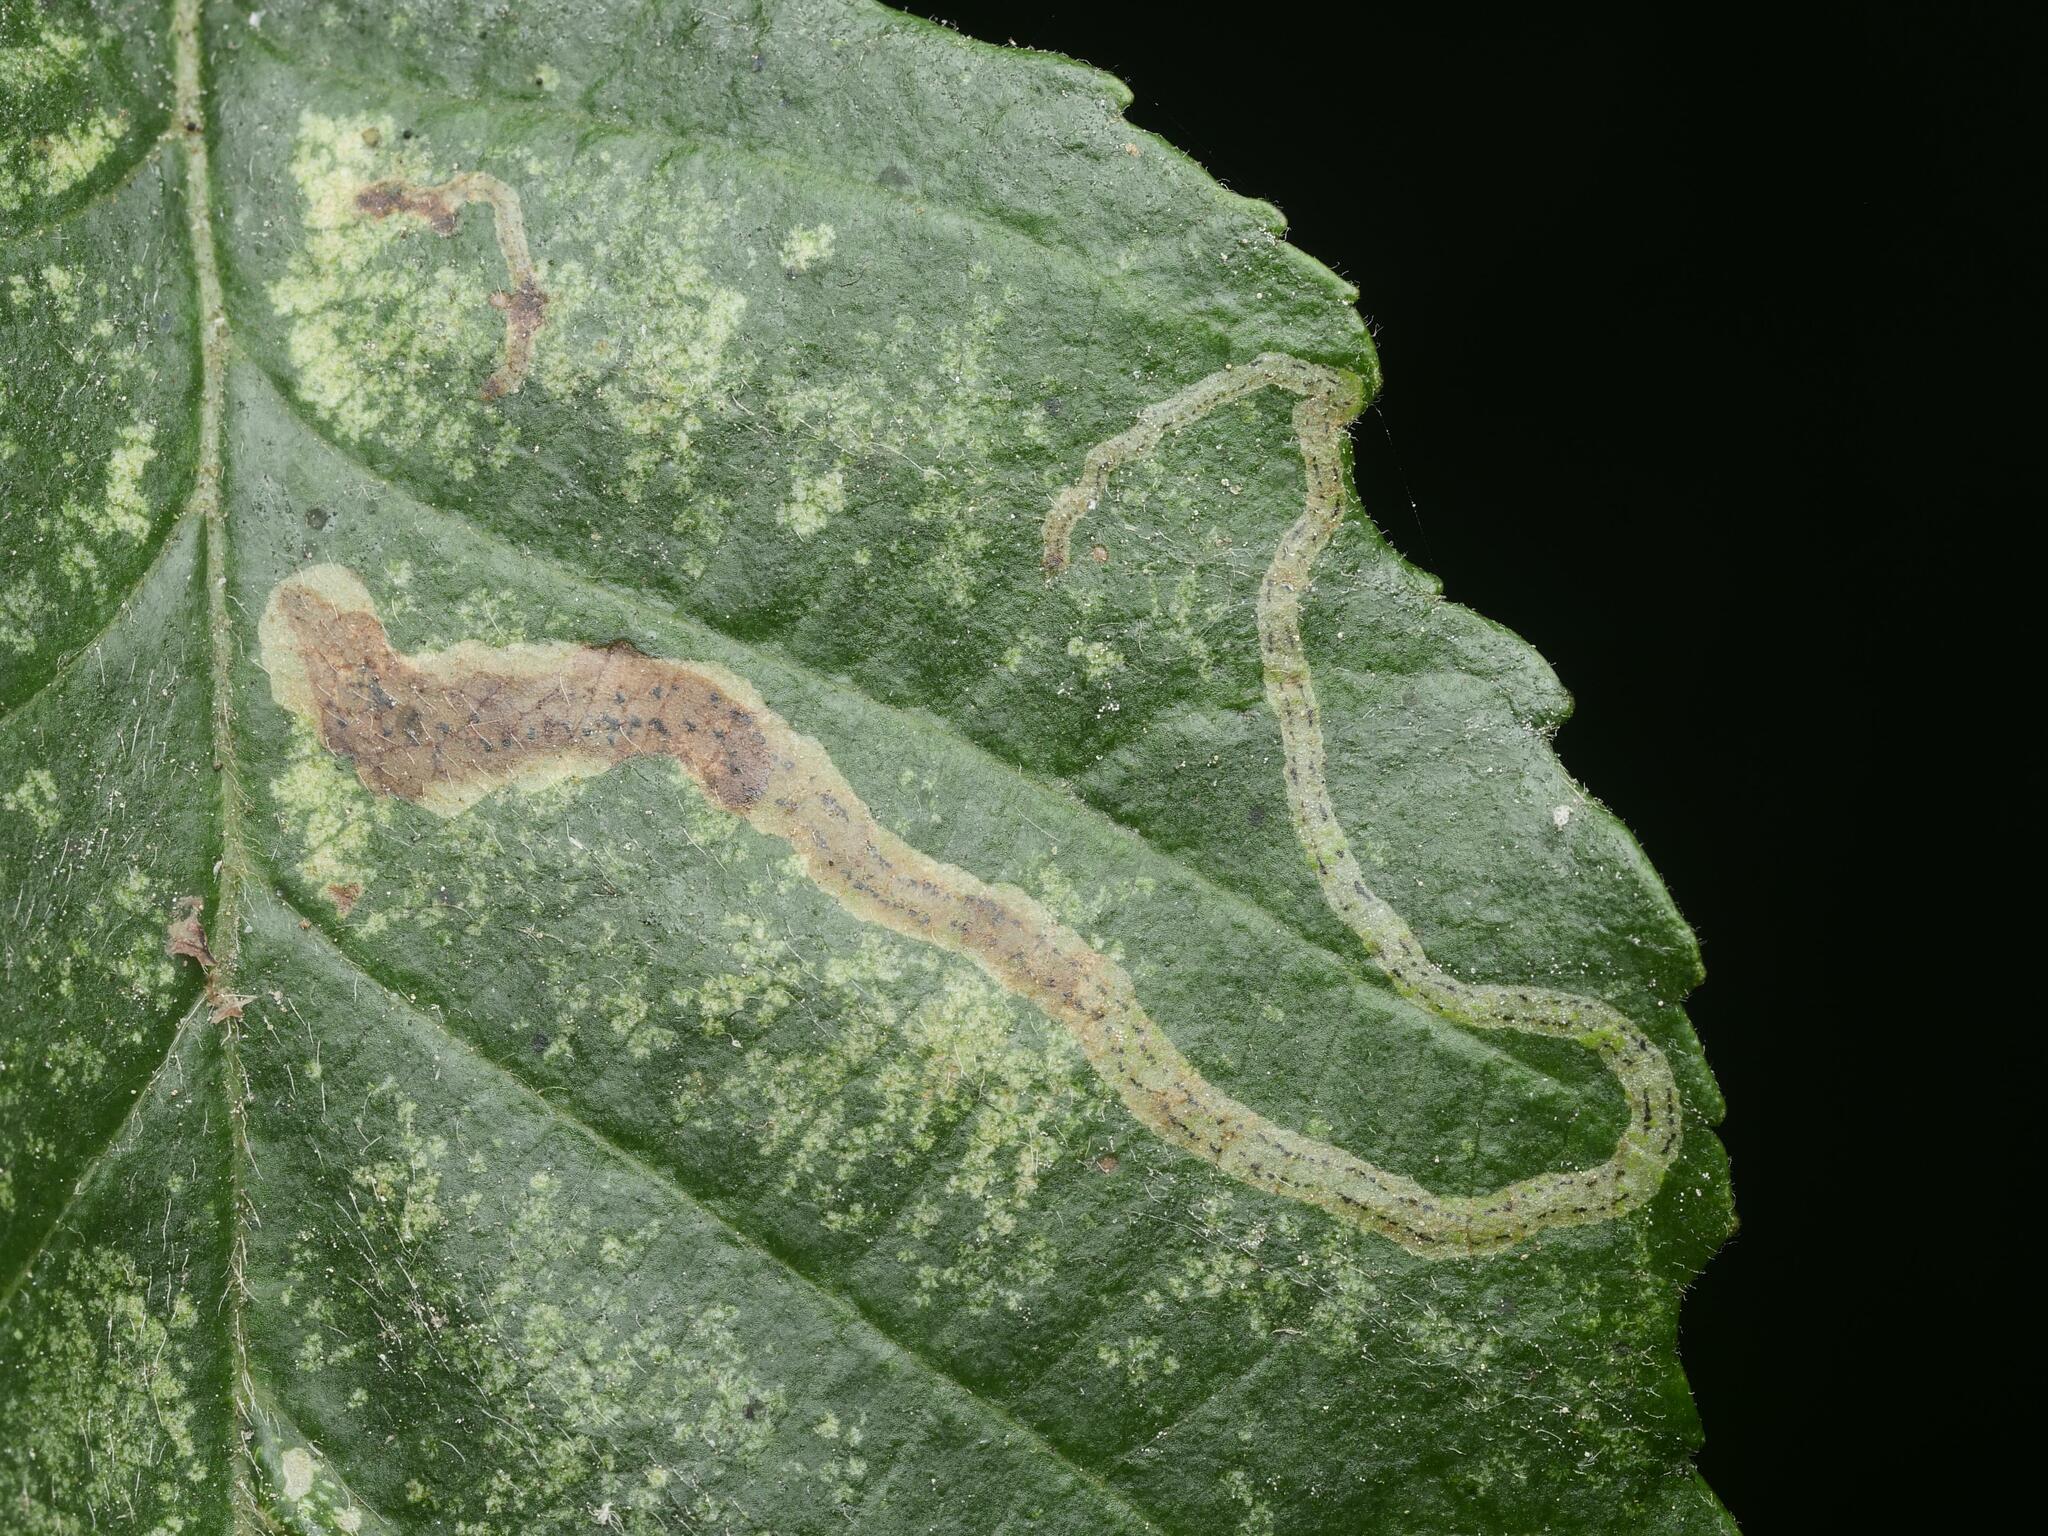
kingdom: Animalia
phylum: Arthropoda
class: Insecta
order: Diptera
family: Agromyzidae
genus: Agromyza
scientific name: Agromyza alnivora
